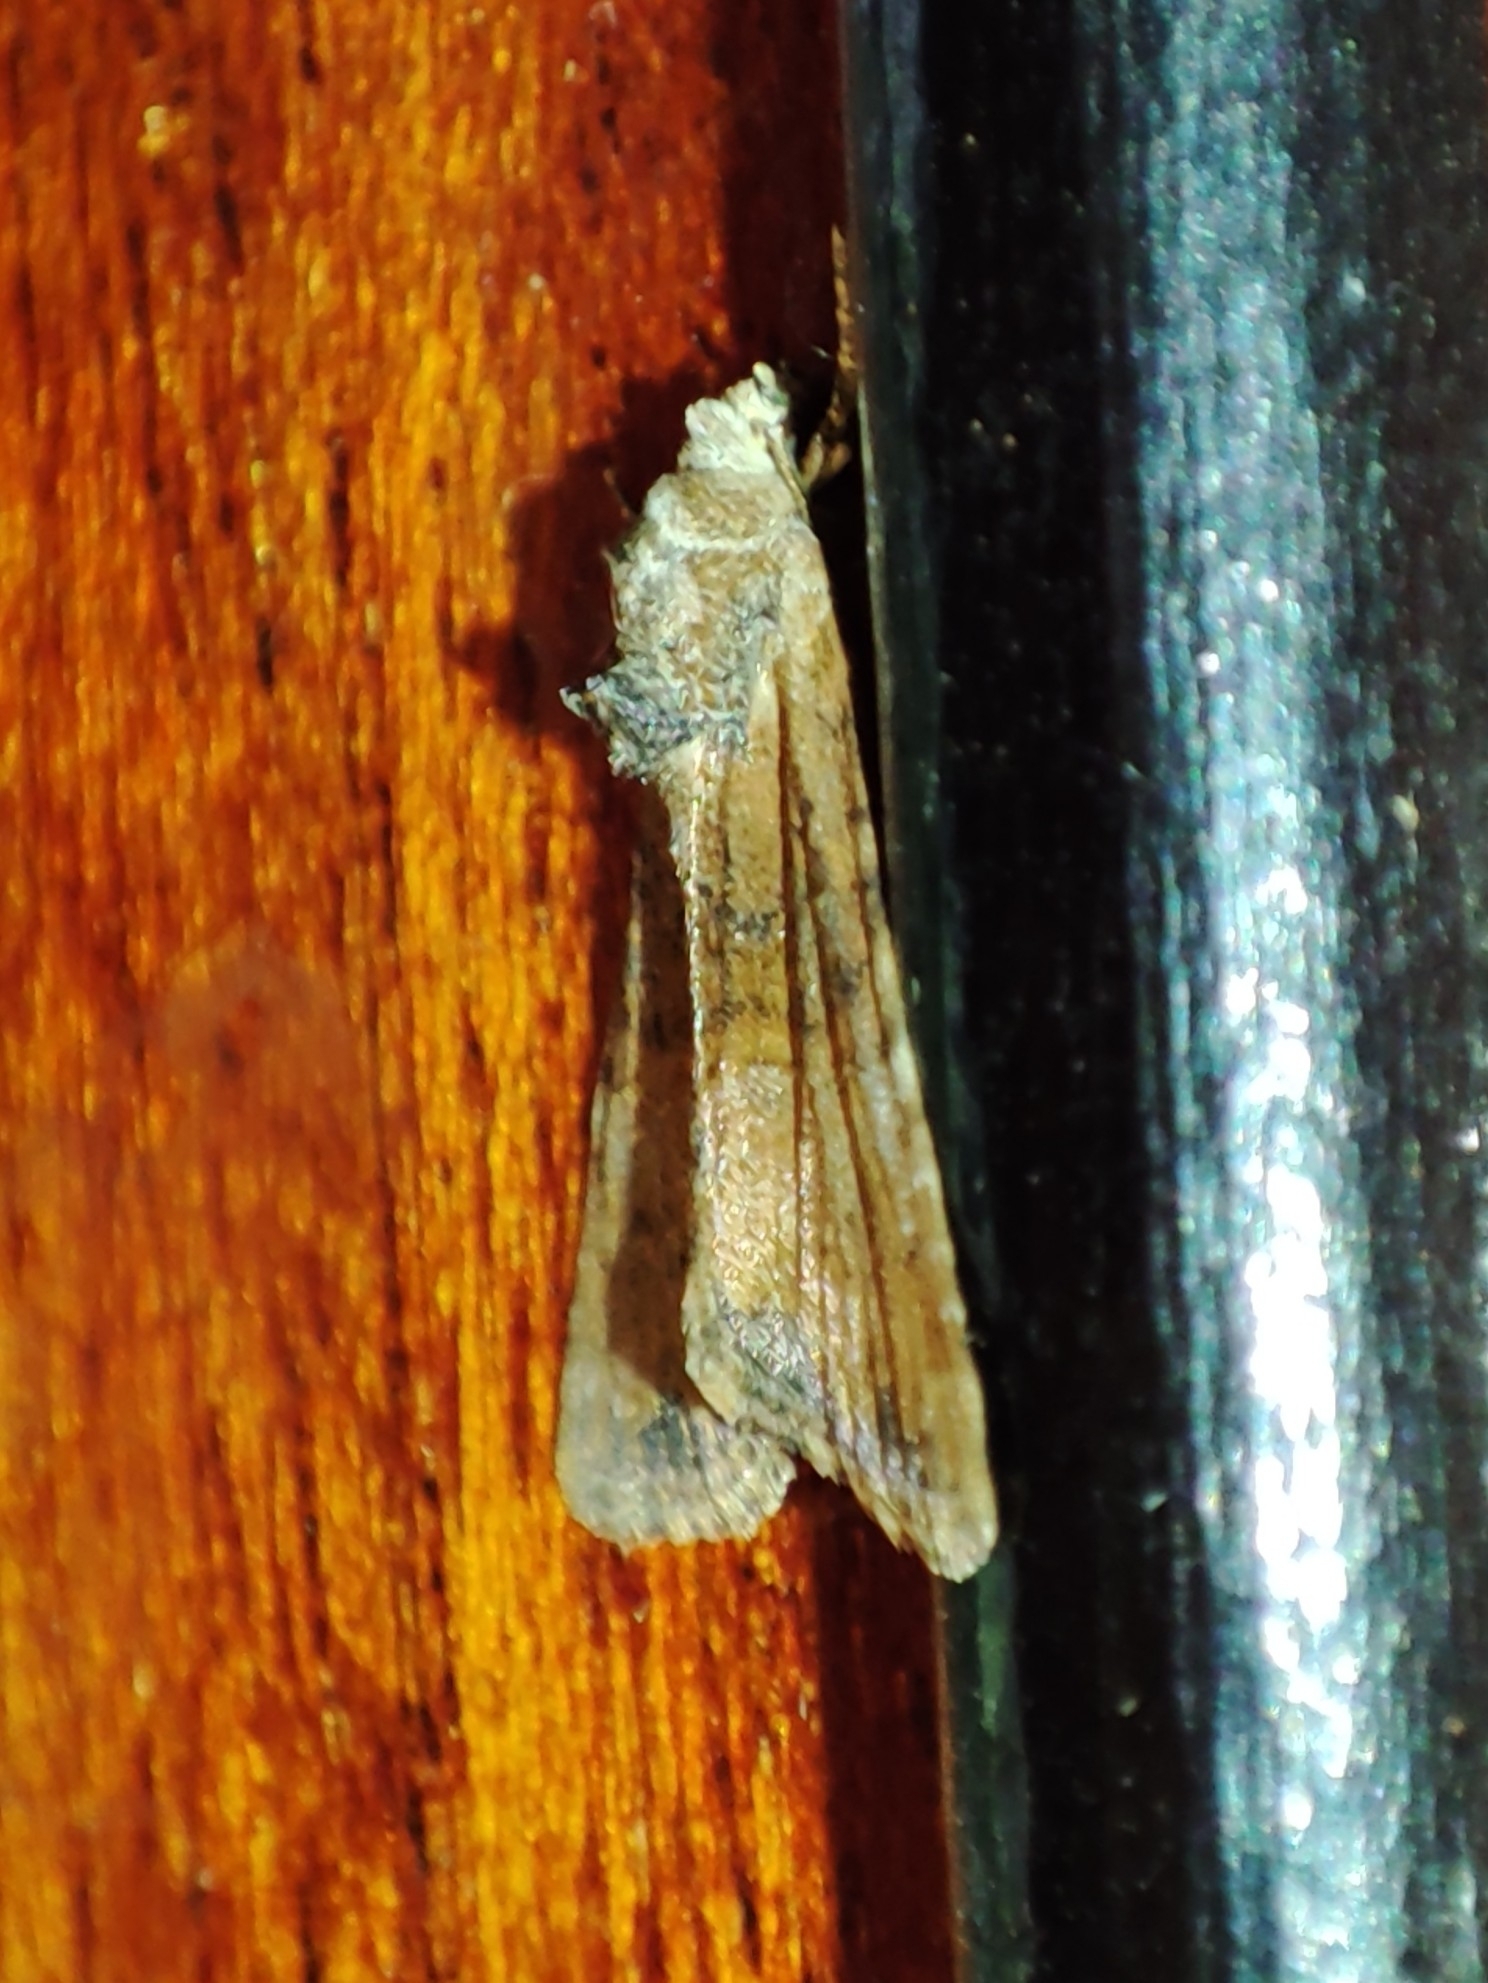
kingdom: Animalia
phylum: Arthropoda
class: Insecta
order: Lepidoptera
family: Noctuidae
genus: Mesoligia
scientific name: Mesoligia furuncula
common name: Cloaked minor
